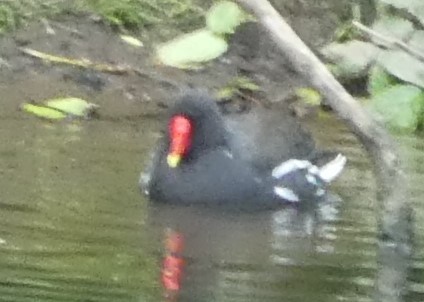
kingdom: Animalia
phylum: Chordata
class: Aves
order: Gruiformes
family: Rallidae
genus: Gallinula
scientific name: Gallinula chloropus
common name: Common moorhen
